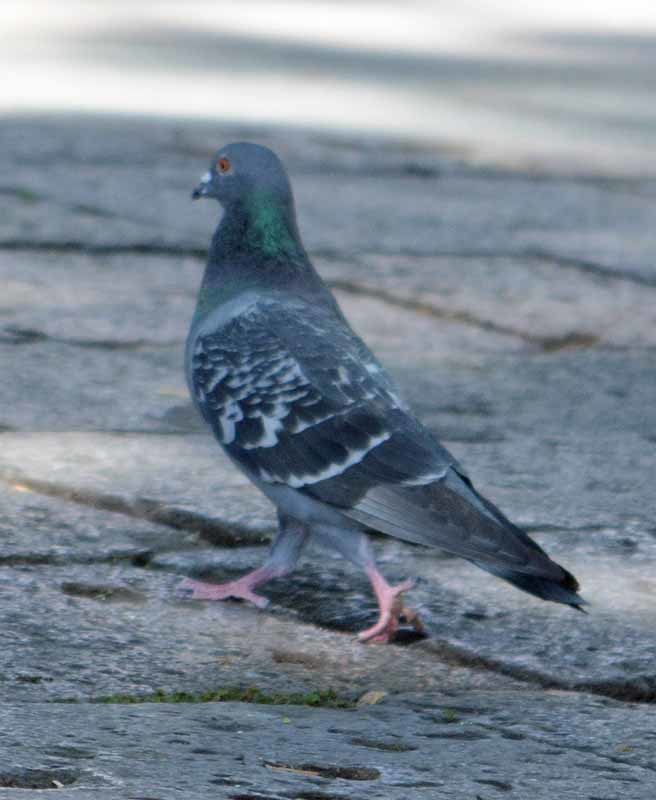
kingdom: Animalia
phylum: Chordata
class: Aves
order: Columbiformes
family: Columbidae
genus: Columba
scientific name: Columba livia
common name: Rock pigeon
